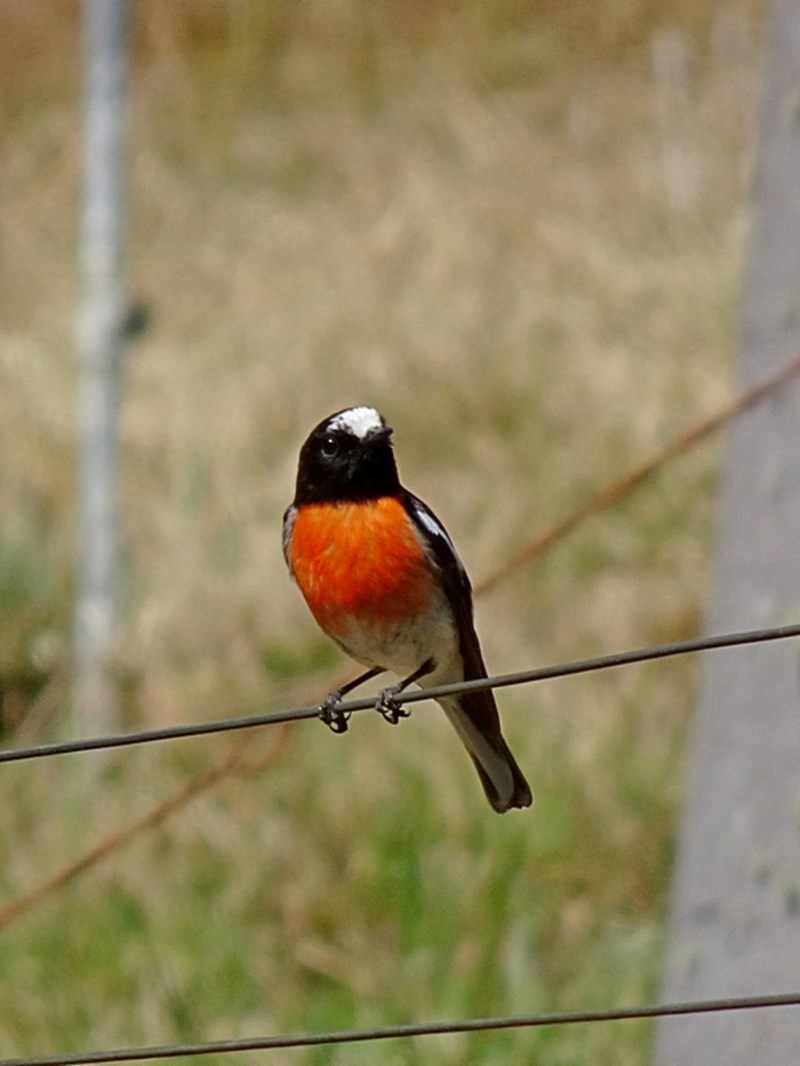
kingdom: Animalia
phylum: Chordata
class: Aves
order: Passeriformes
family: Petroicidae
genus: Petroica
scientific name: Petroica boodang
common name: Scarlet robin
